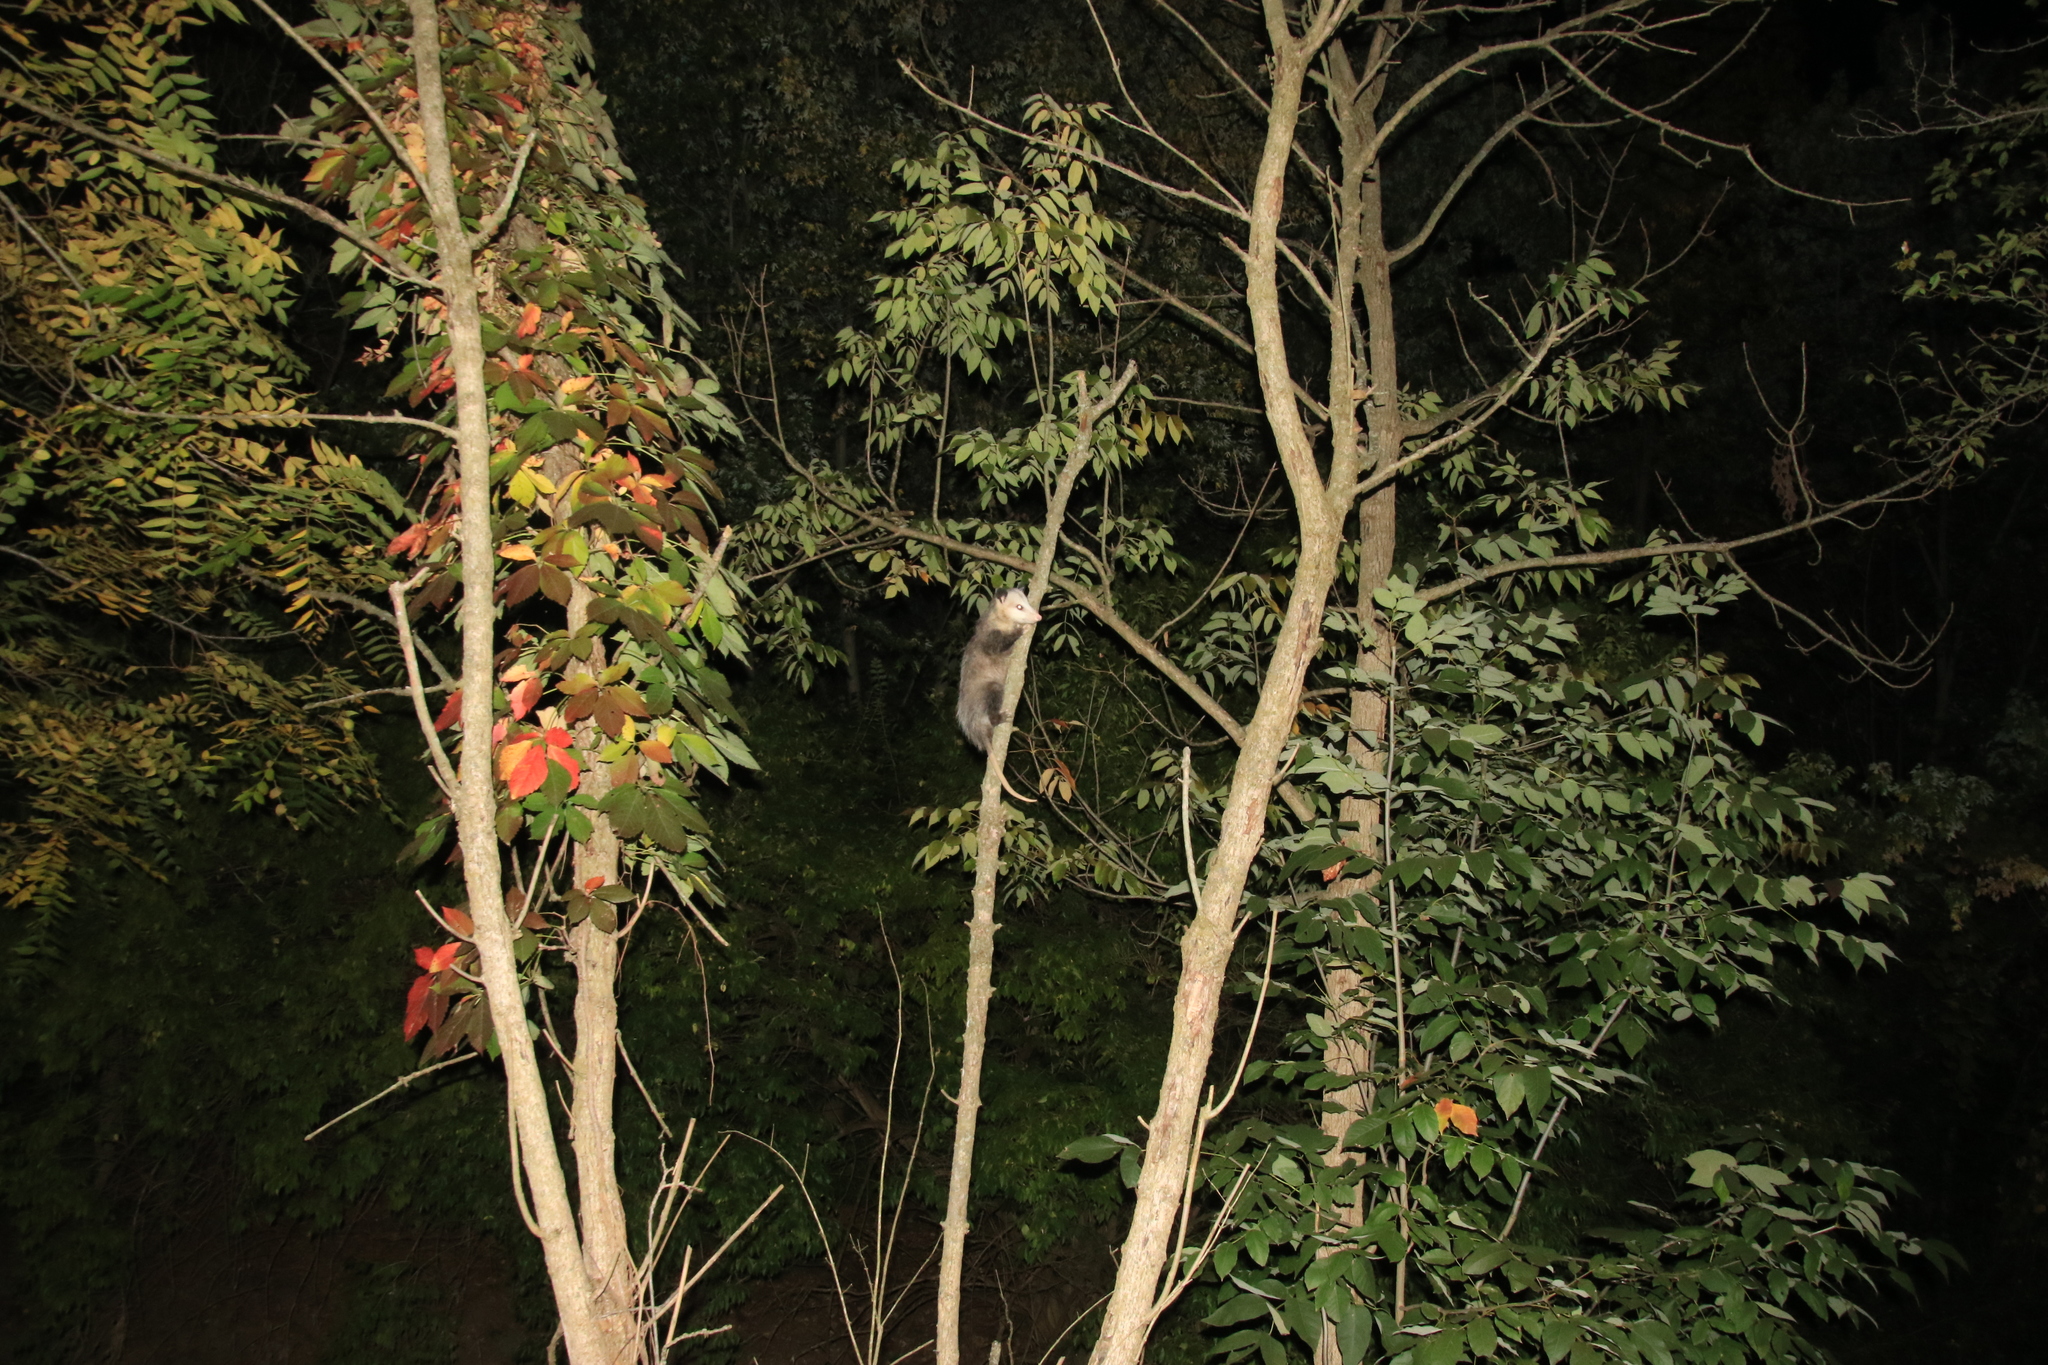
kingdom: Animalia
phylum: Chordata
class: Mammalia
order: Didelphimorphia
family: Didelphidae
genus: Didelphis
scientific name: Didelphis virginiana
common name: Virginia opossum
